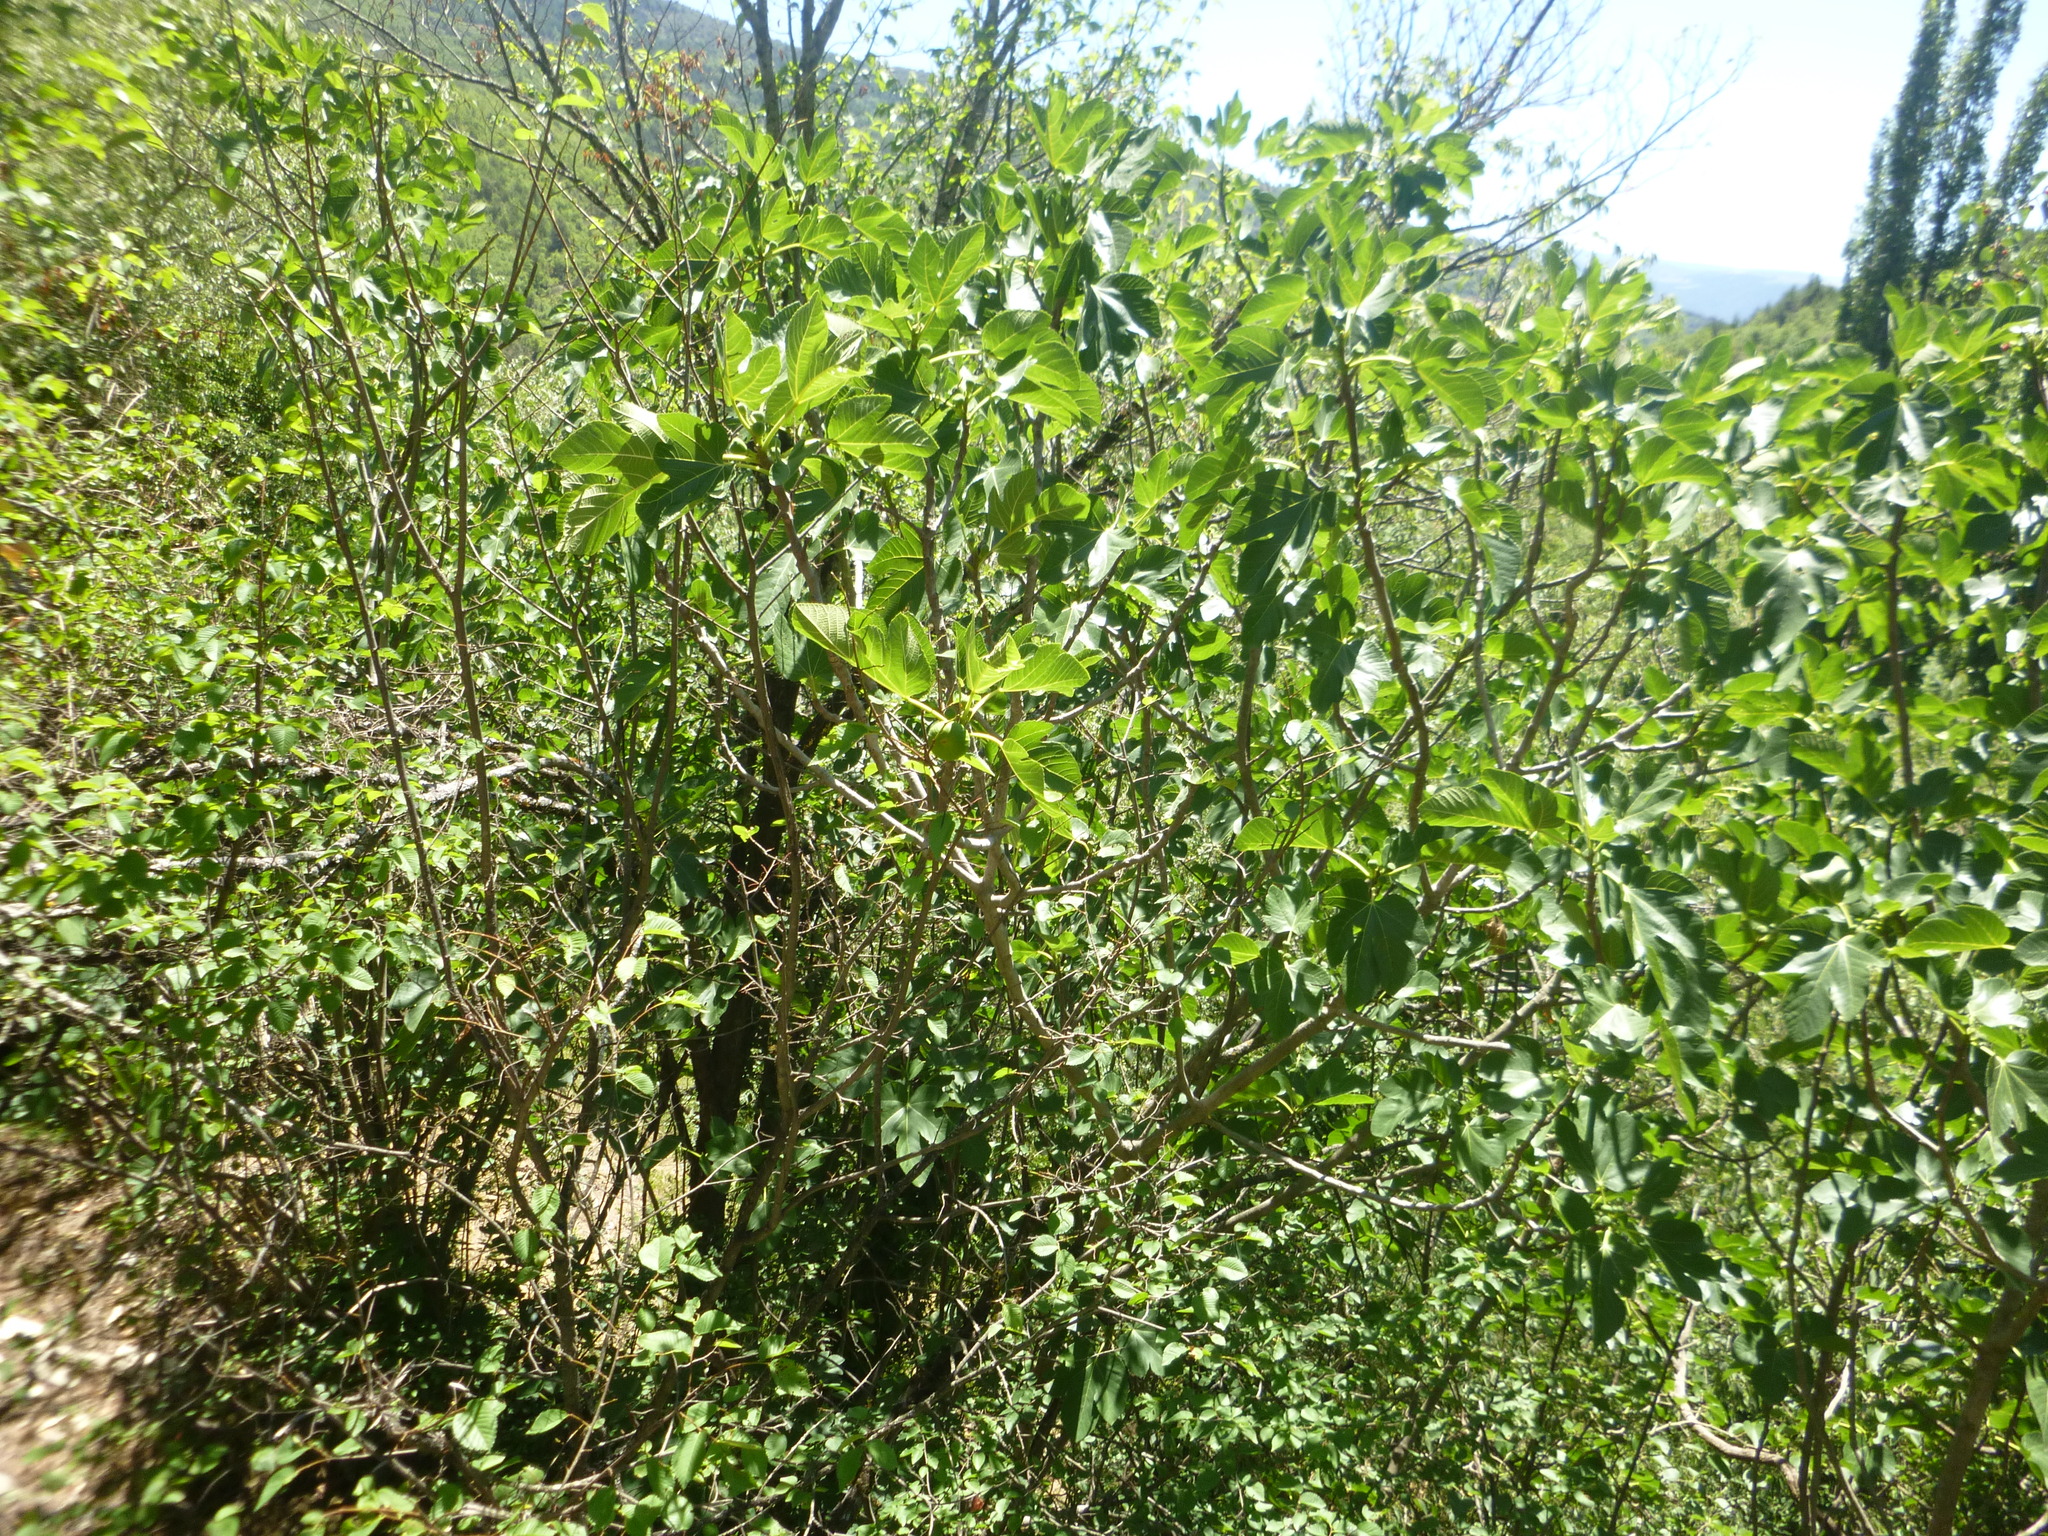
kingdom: Plantae
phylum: Tracheophyta
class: Magnoliopsida
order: Rosales
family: Moraceae
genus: Ficus
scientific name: Ficus carica
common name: Fig
